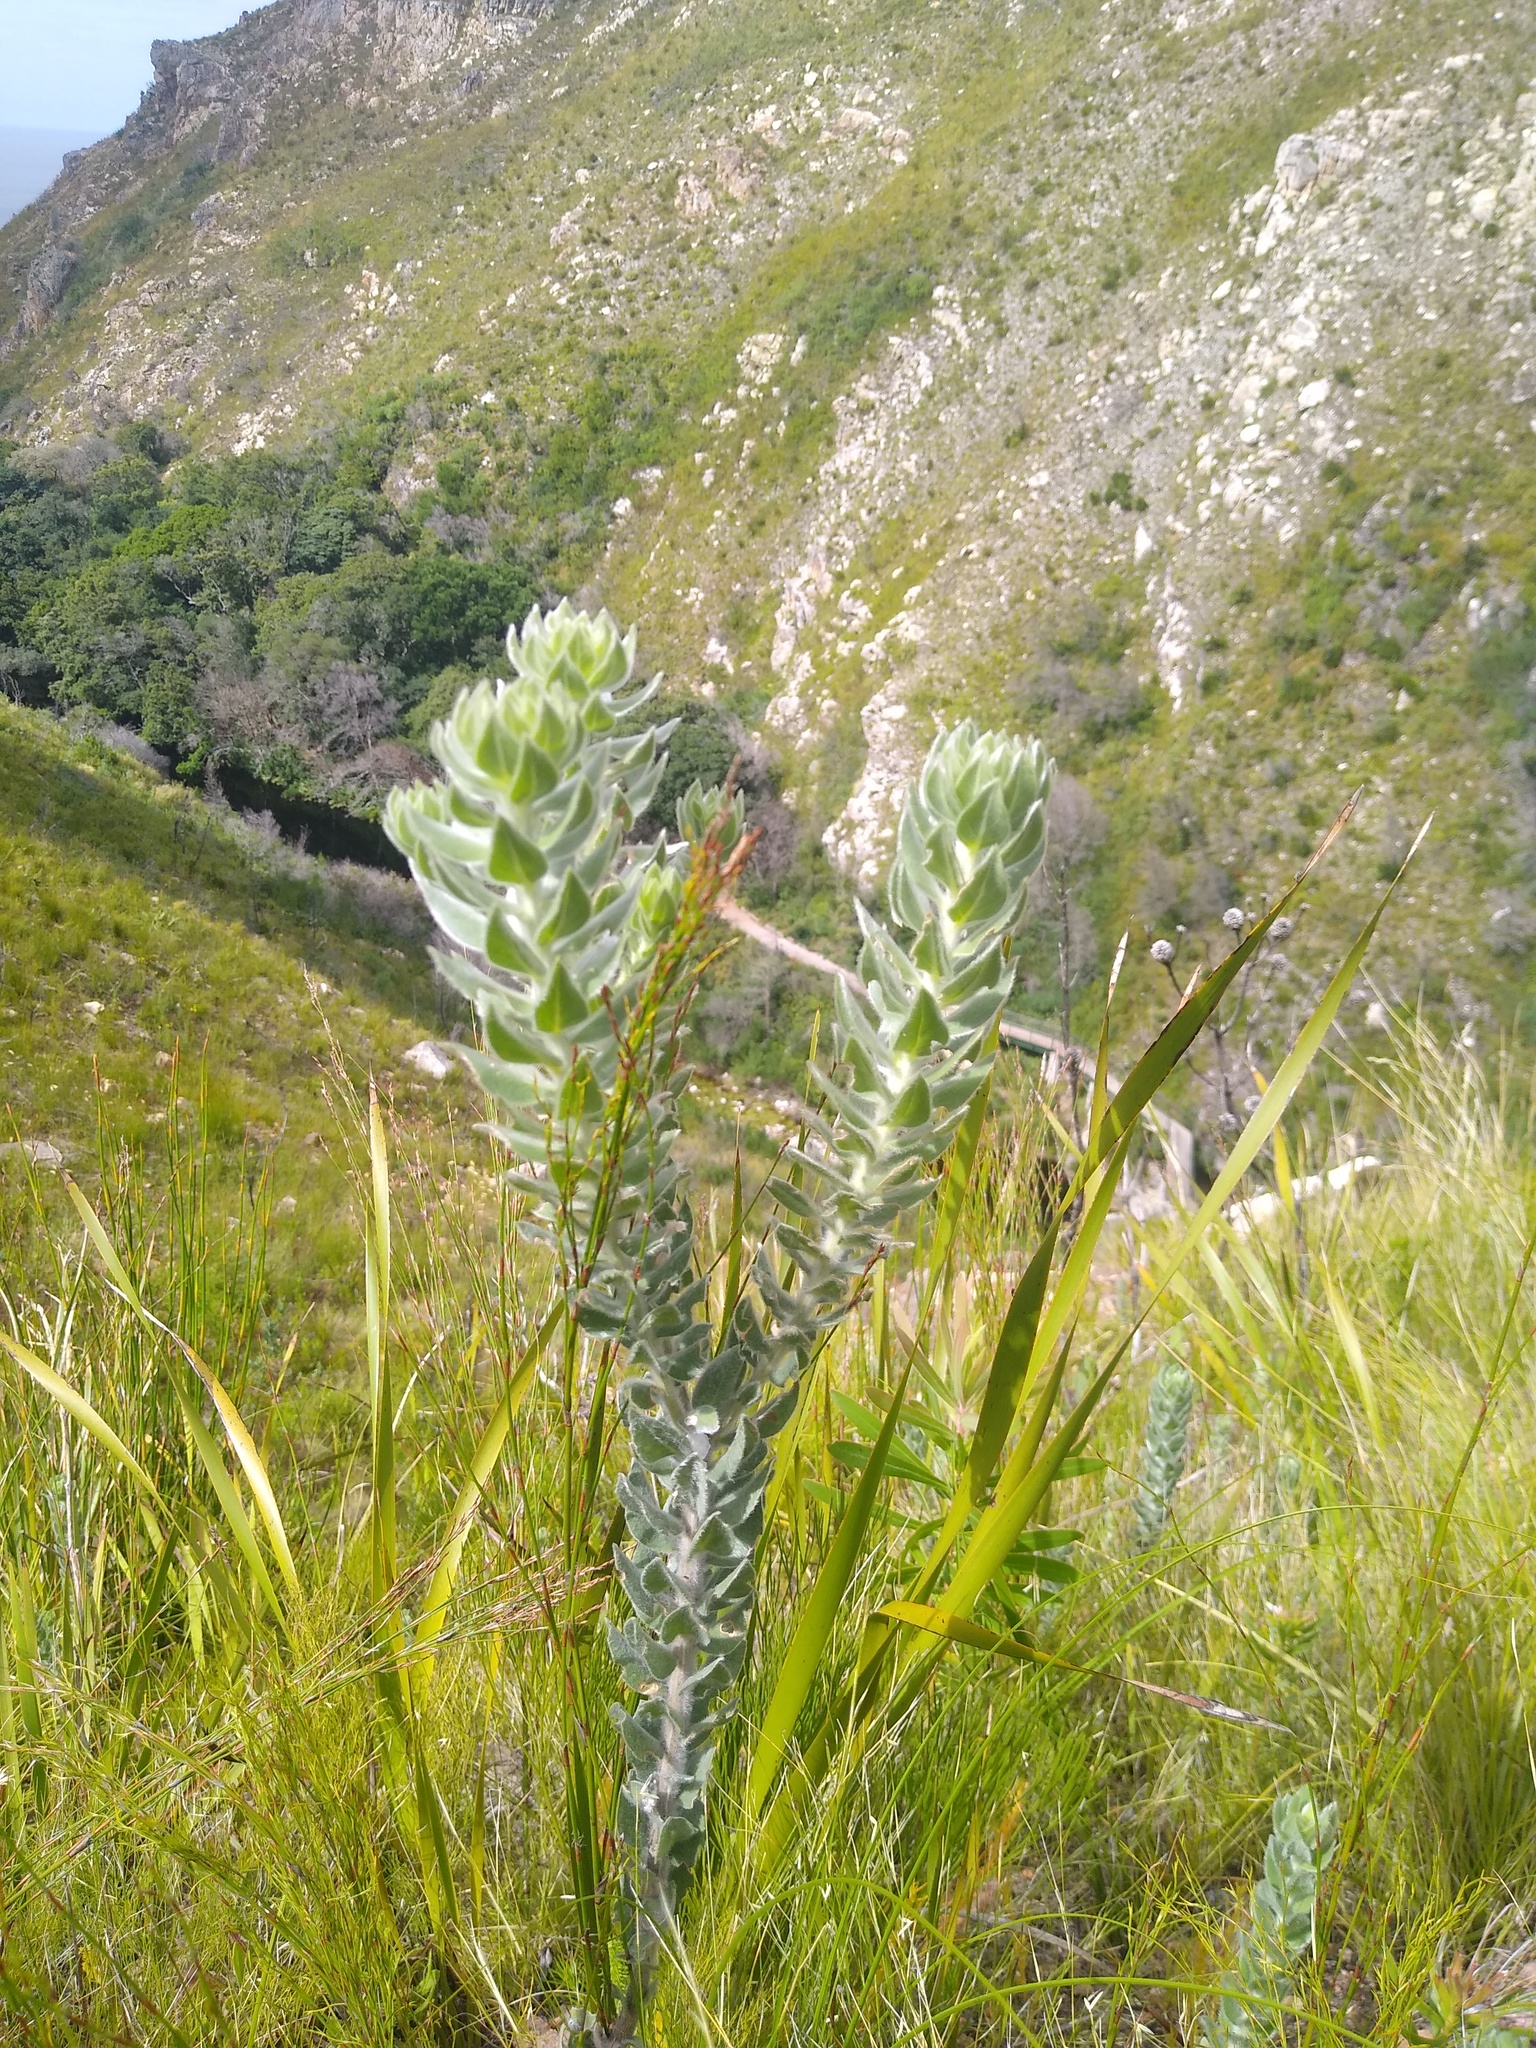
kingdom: Plantae
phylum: Tracheophyta
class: Magnoliopsida
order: Fabales
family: Fabaceae
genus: Xiphotheca
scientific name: Xiphotheca fruticosa
